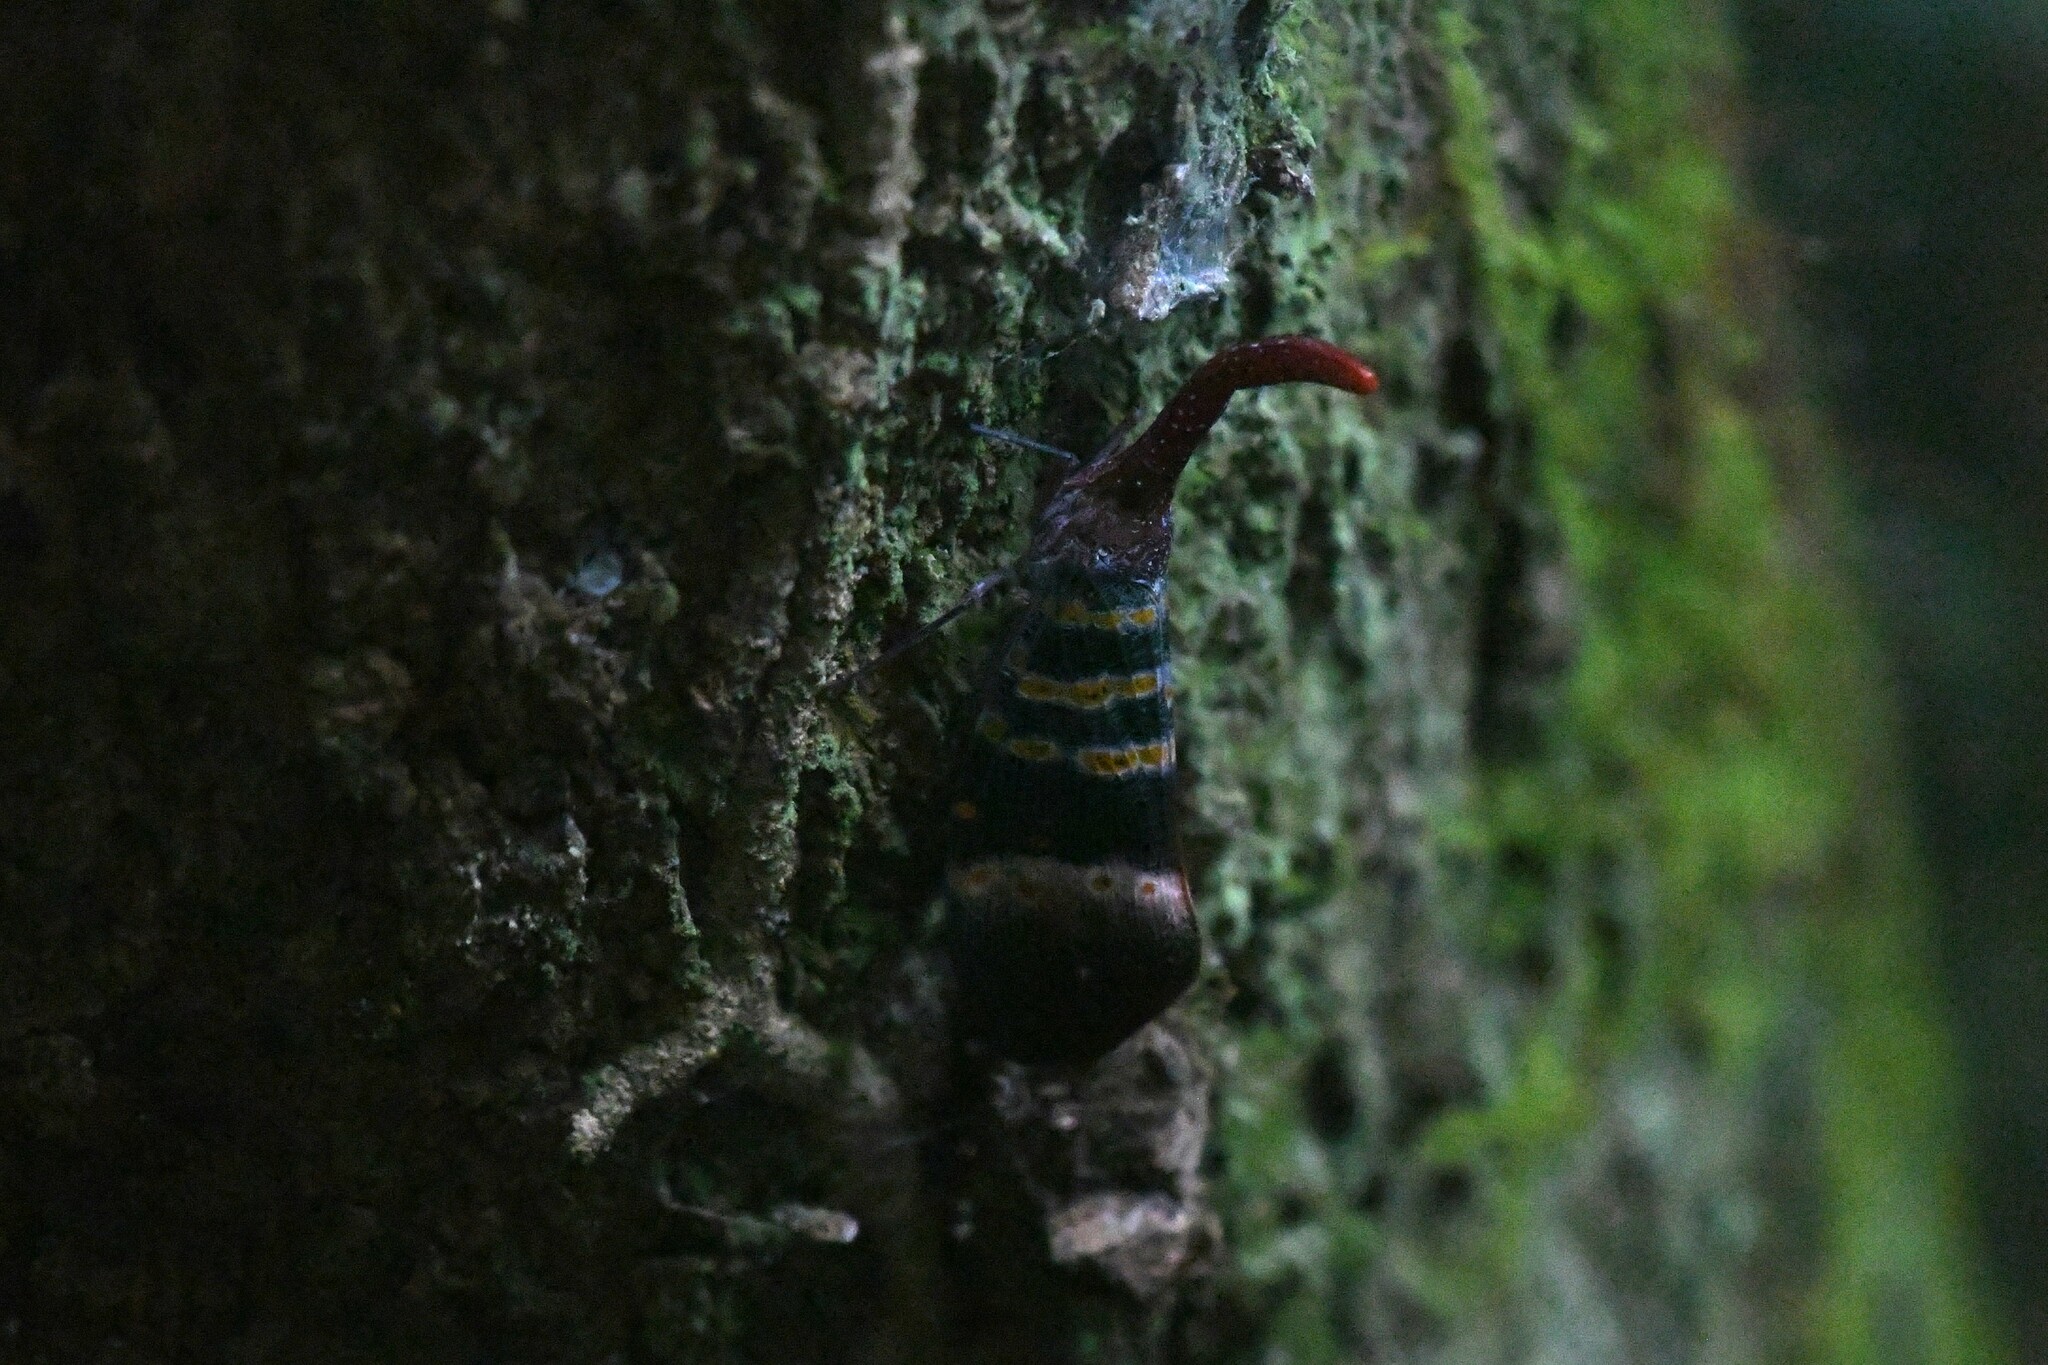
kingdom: Animalia
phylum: Arthropoda
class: Insecta
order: Hemiptera
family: Fulgoridae
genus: Pyrops
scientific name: Pyrops karenius
